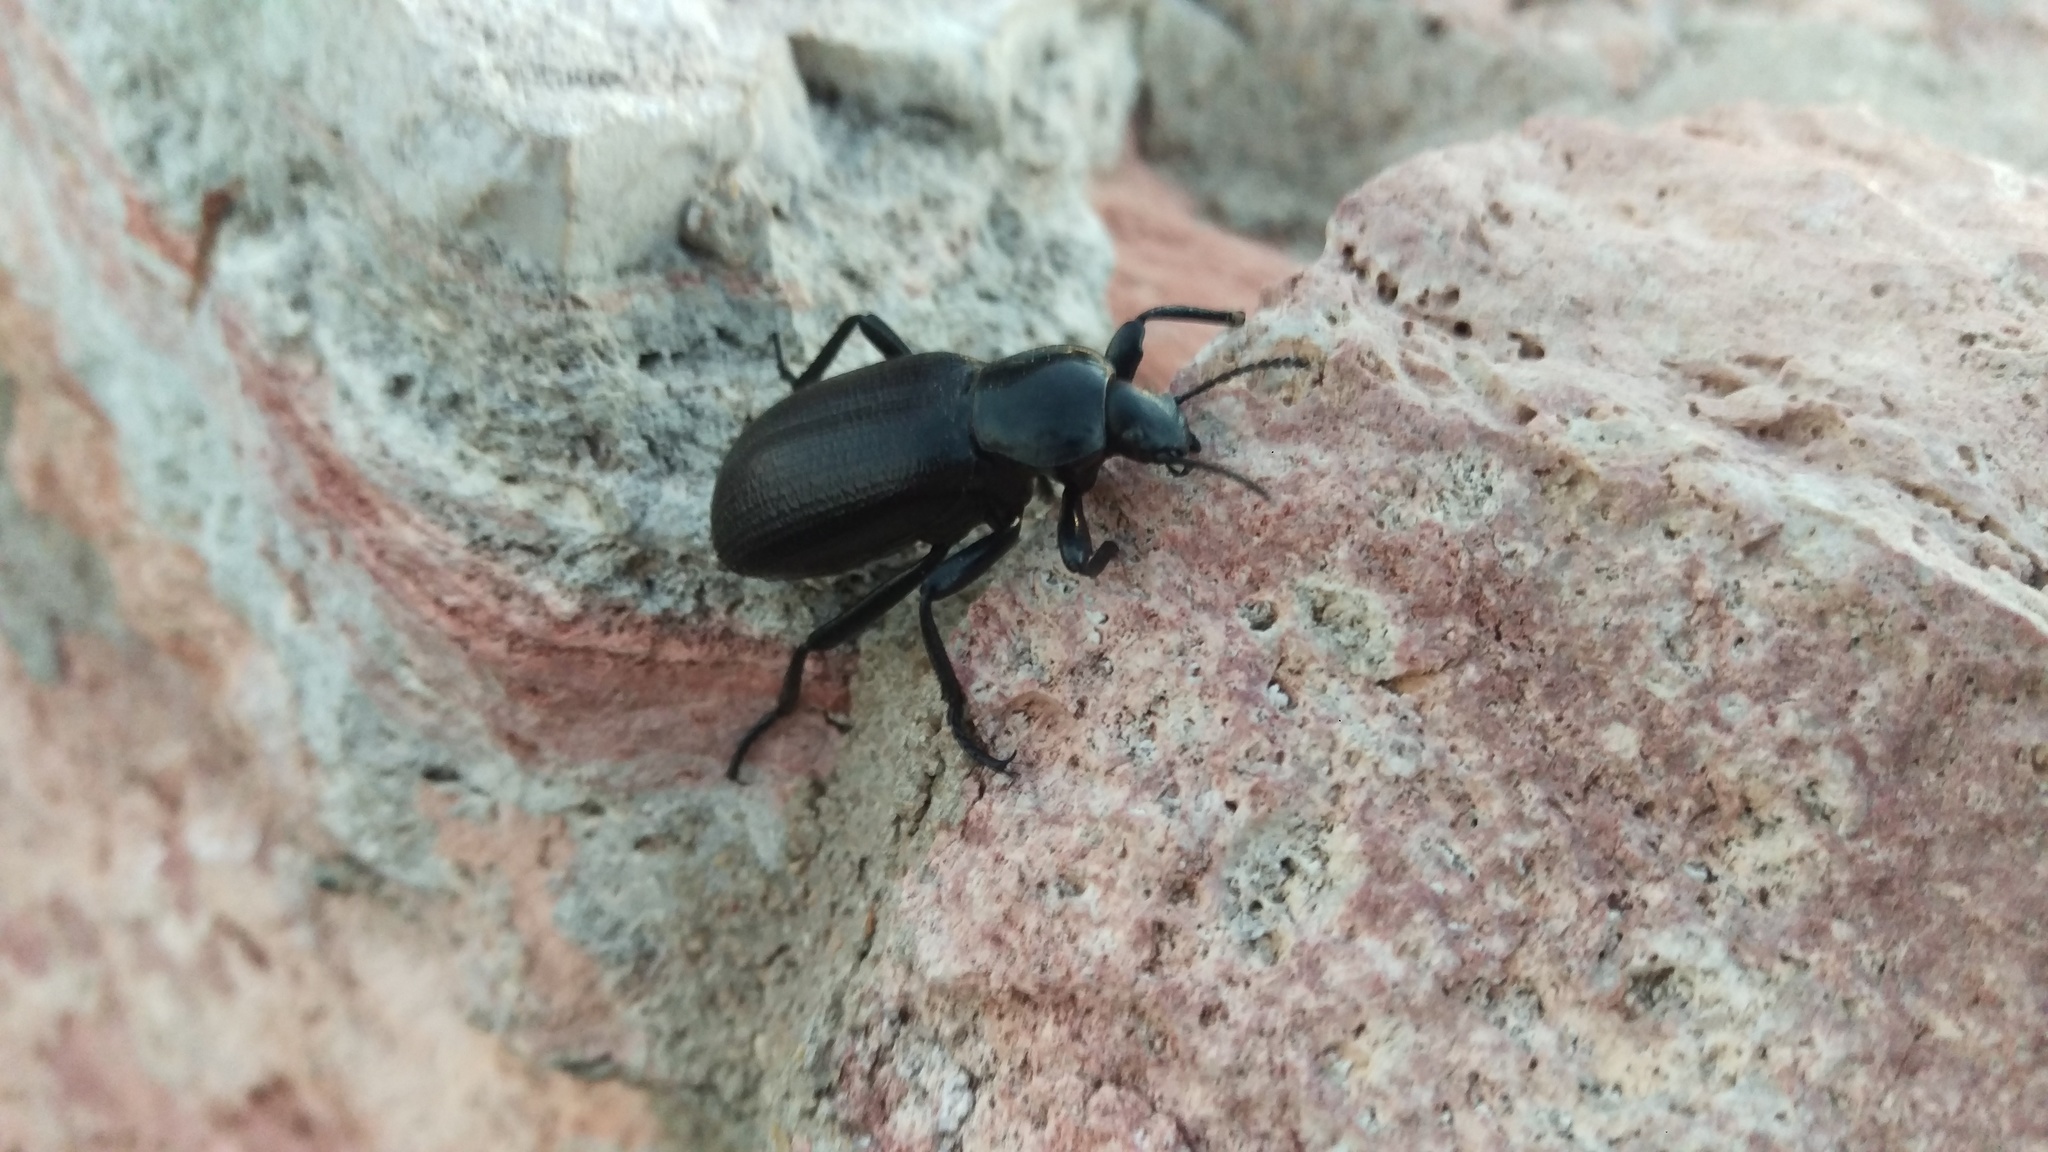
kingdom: Animalia
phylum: Arthropoda
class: Insecta
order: Coleoptera
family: Tenebrionidae
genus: Eleodes
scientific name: Eleodes obscura
